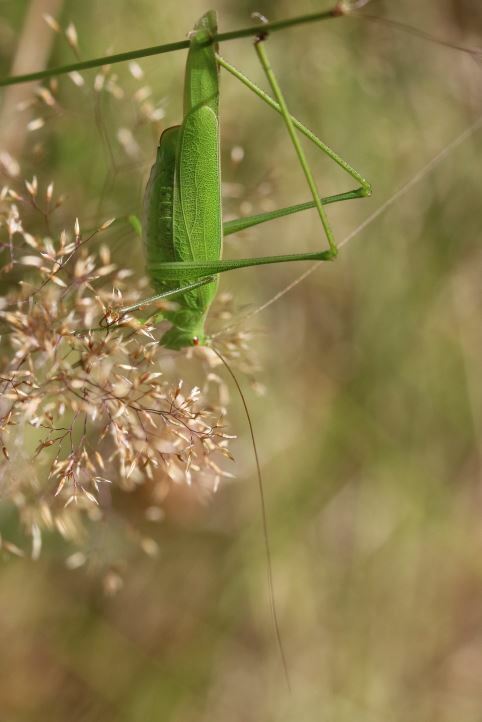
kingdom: Animalia
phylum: Arthropoda
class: Insecta
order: Orthoptera
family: Tettigoniidae
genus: Phaneroptera
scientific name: Phaneroptera nana
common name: Southern sickle bush-cricket
